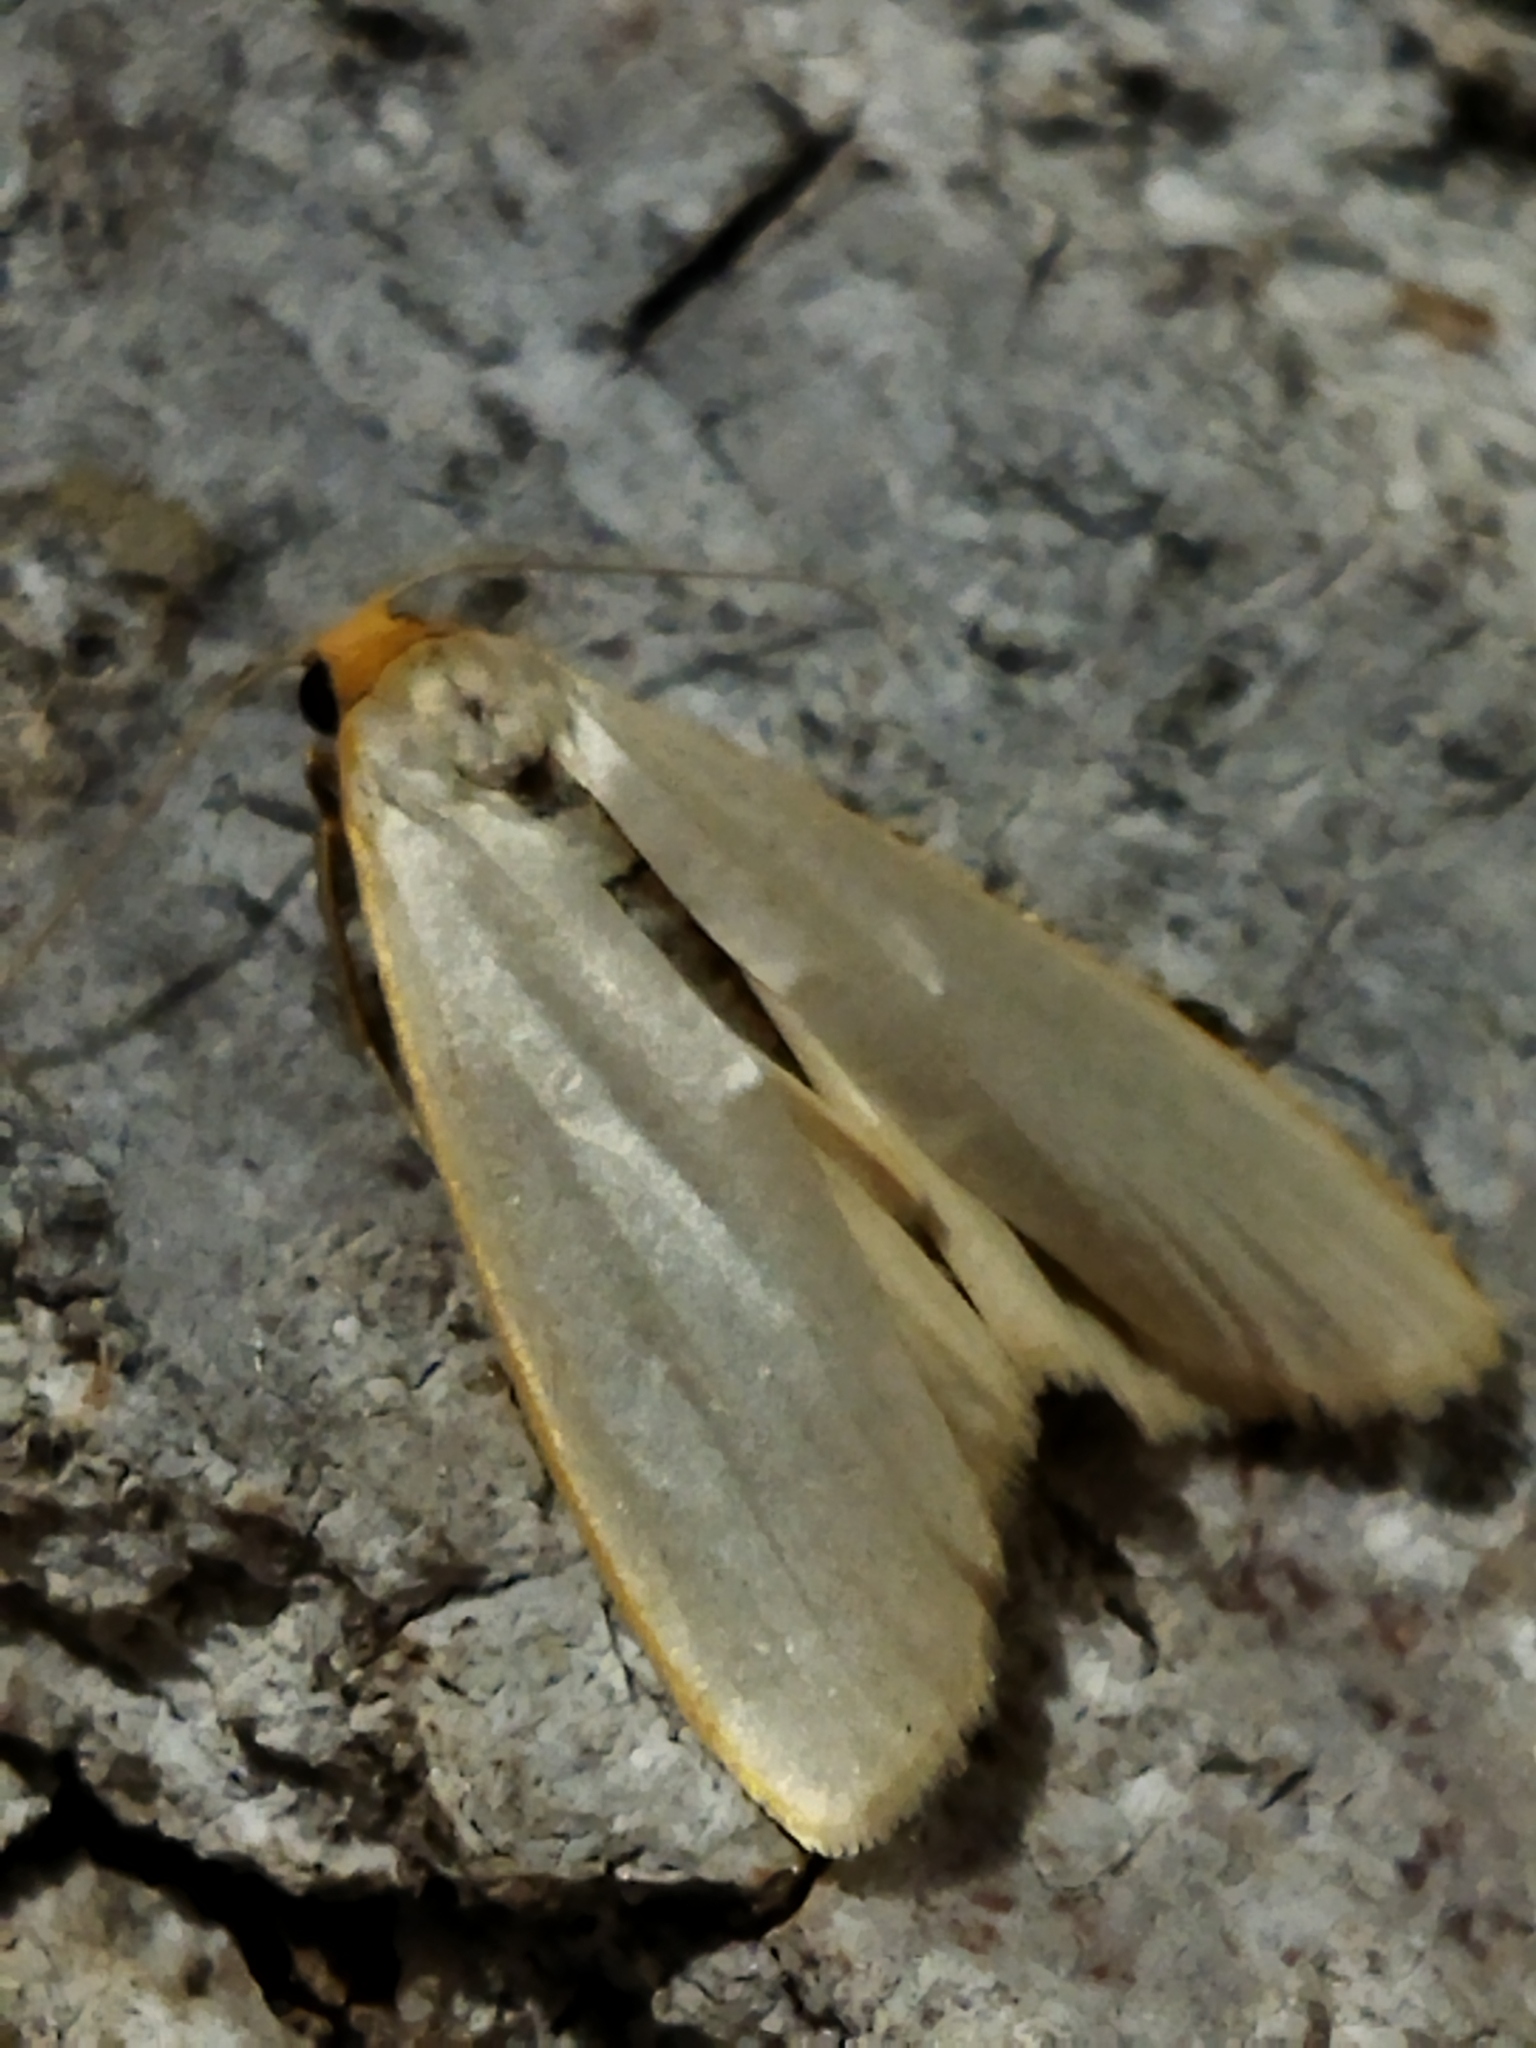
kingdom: Animalia
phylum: Arthropoda
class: Insecta
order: Lepidoptera
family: Erebidae
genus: Eilema
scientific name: Eilema caniola
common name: Hoary footman
